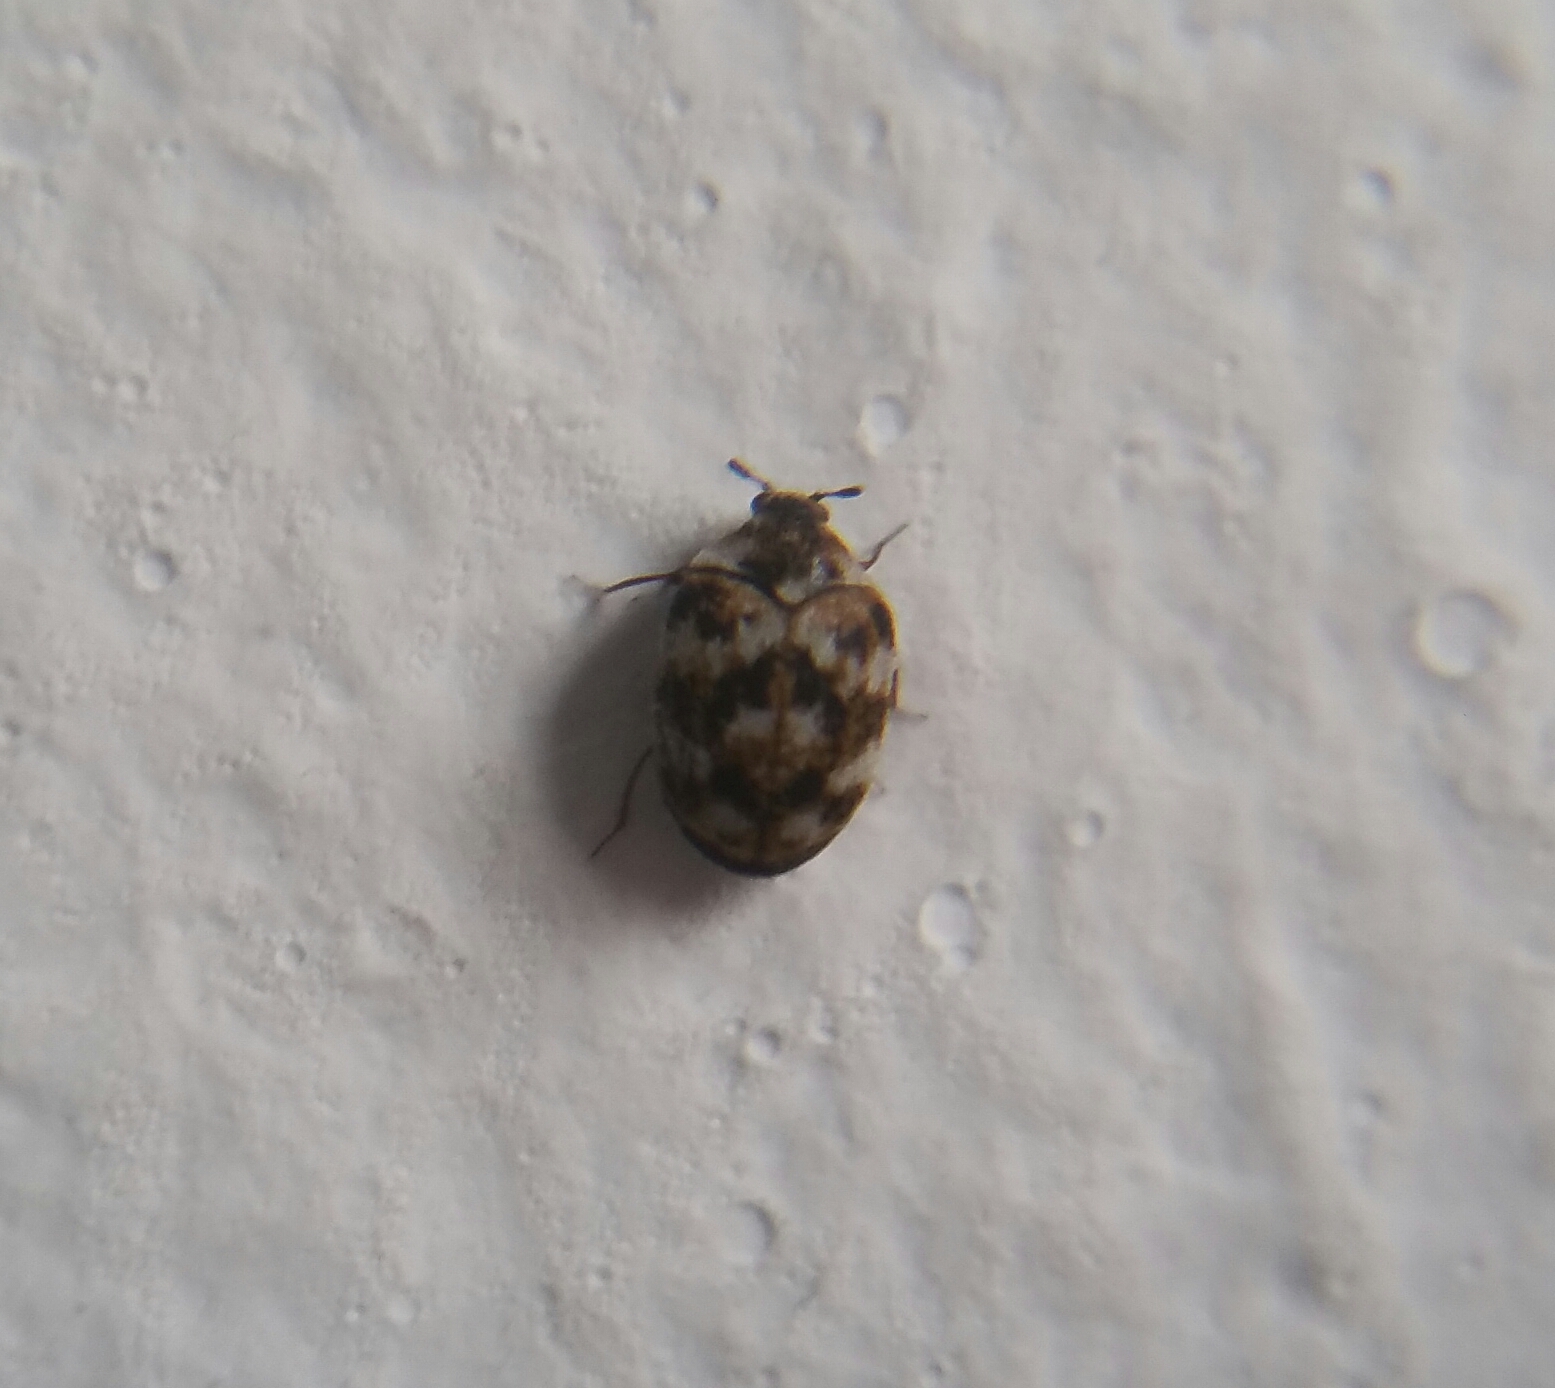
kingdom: Animalia
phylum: Arthropoda
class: Insecta
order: Coleoptera
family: Dermestidae
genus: Anthrenus
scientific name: Anthrenus verbasci
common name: Varied carpet beetle
